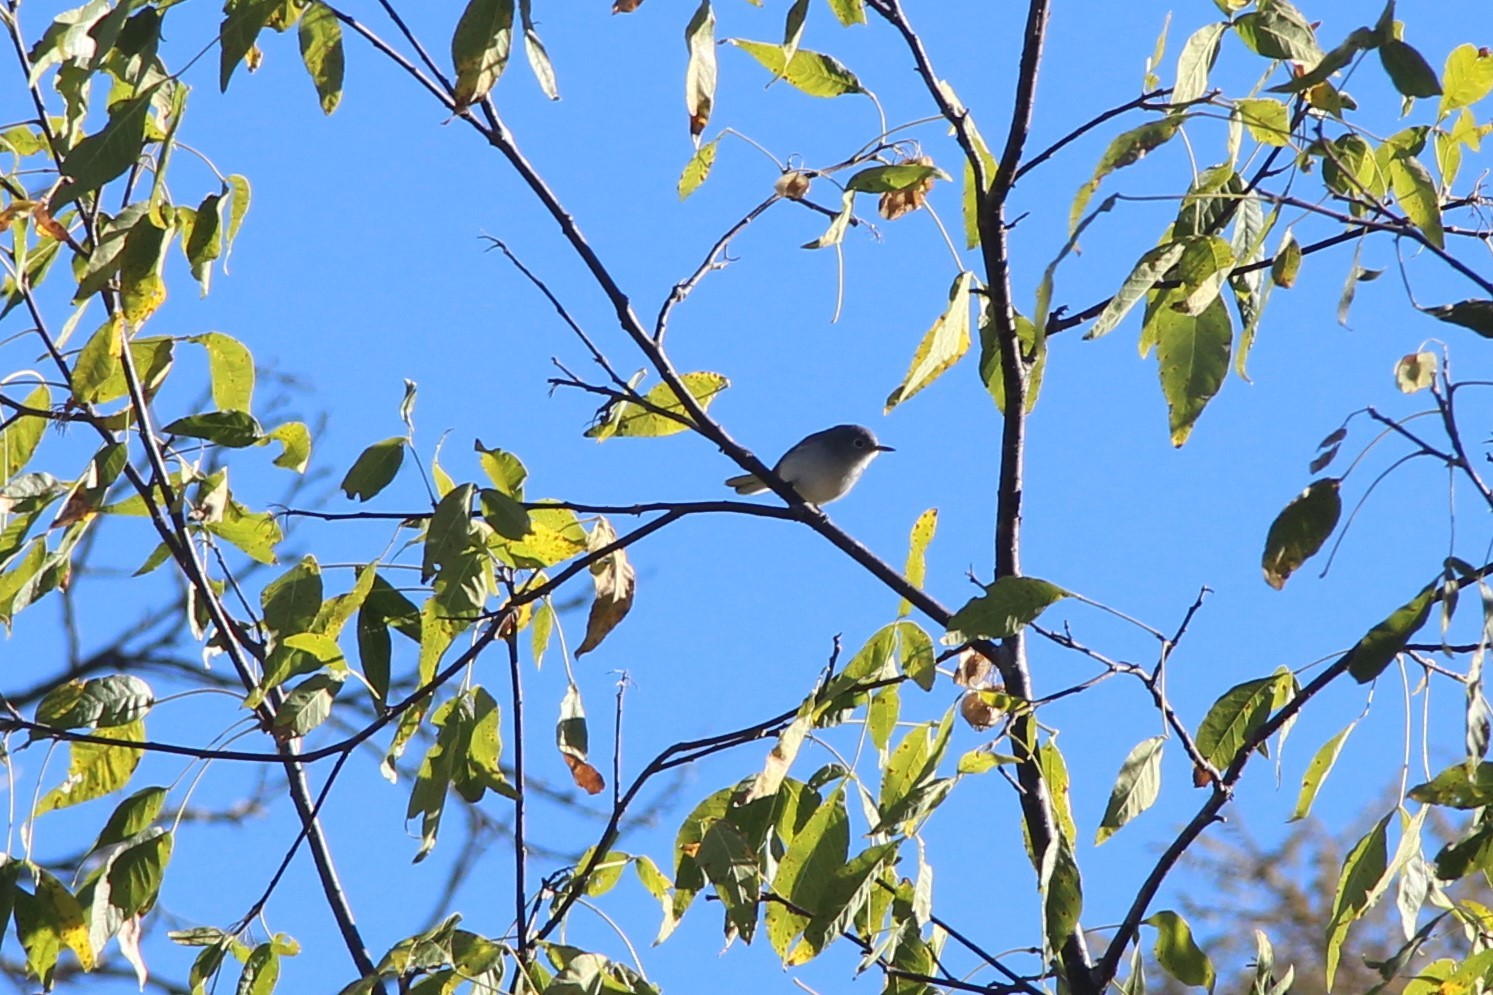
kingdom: Animalia
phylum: Chordata
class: Aves
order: Passeriformes
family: Polioptilidae
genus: Polioptila
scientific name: Polioptila caerulea
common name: Blue-gray gnatcatcher
